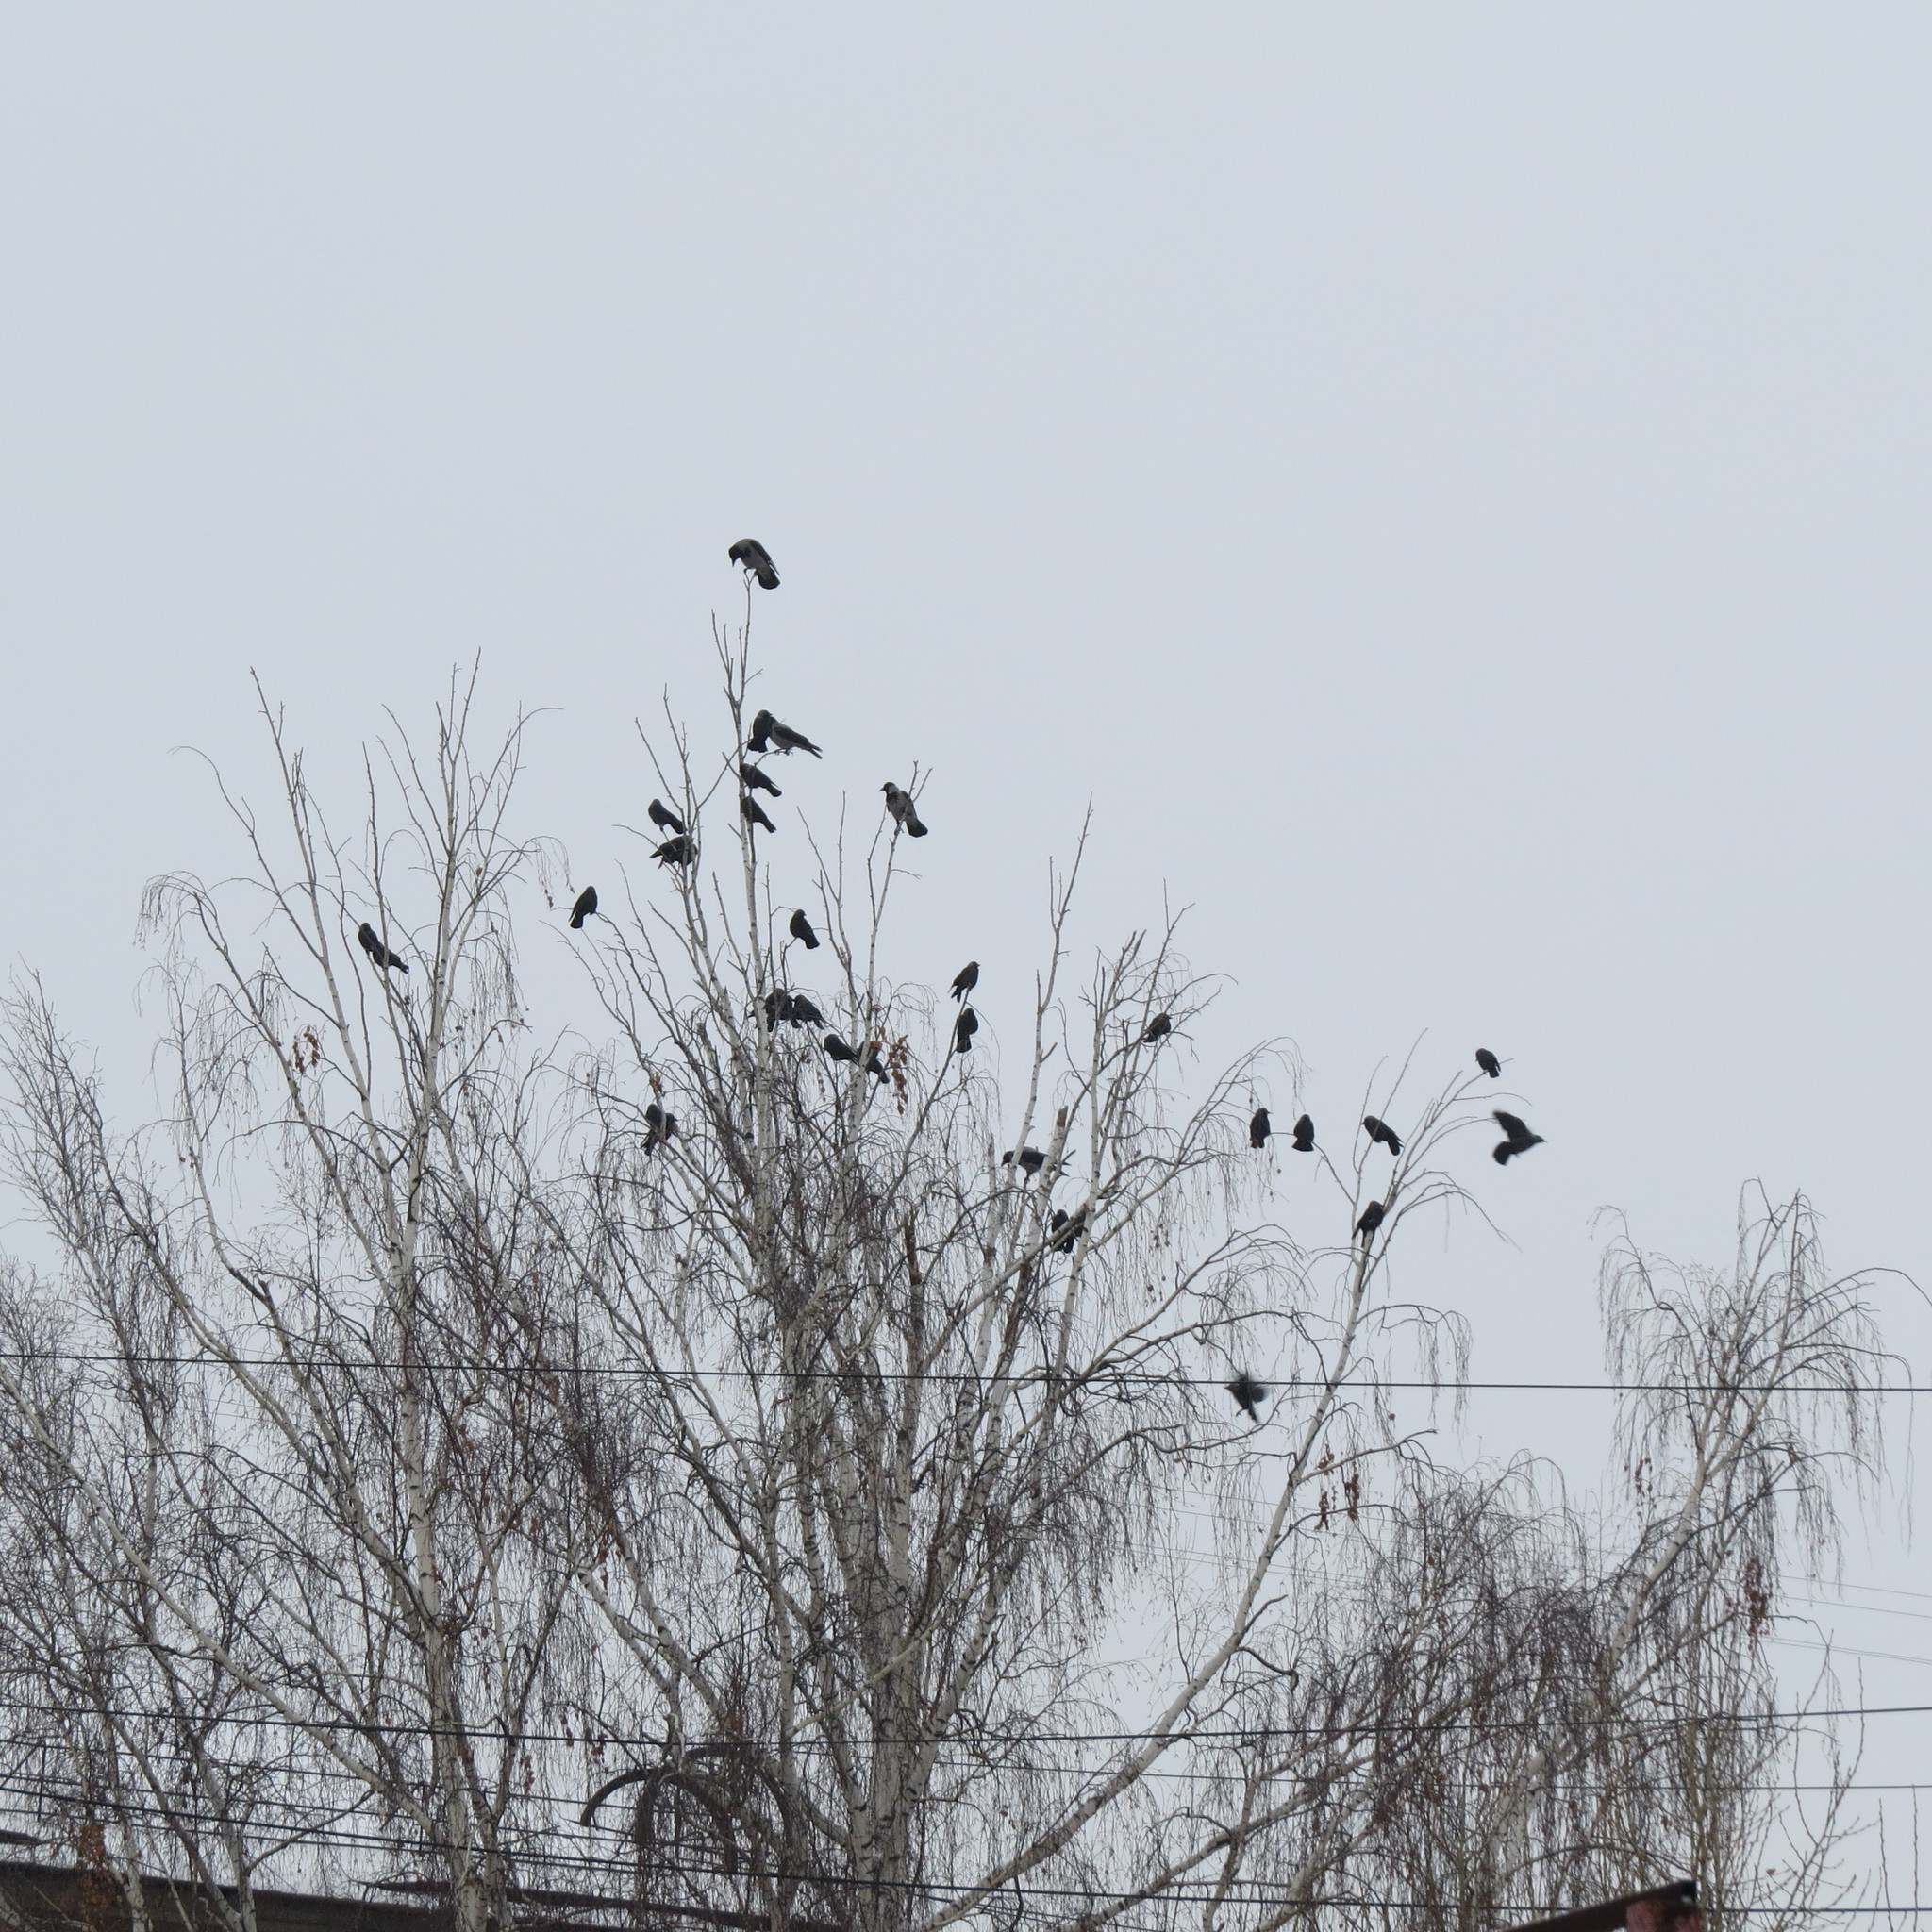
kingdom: Animalia
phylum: Chordata
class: Aves
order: Passeriformes
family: Corvidae
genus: Coloeus
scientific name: Coloeus monedula
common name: Western jackdaw
